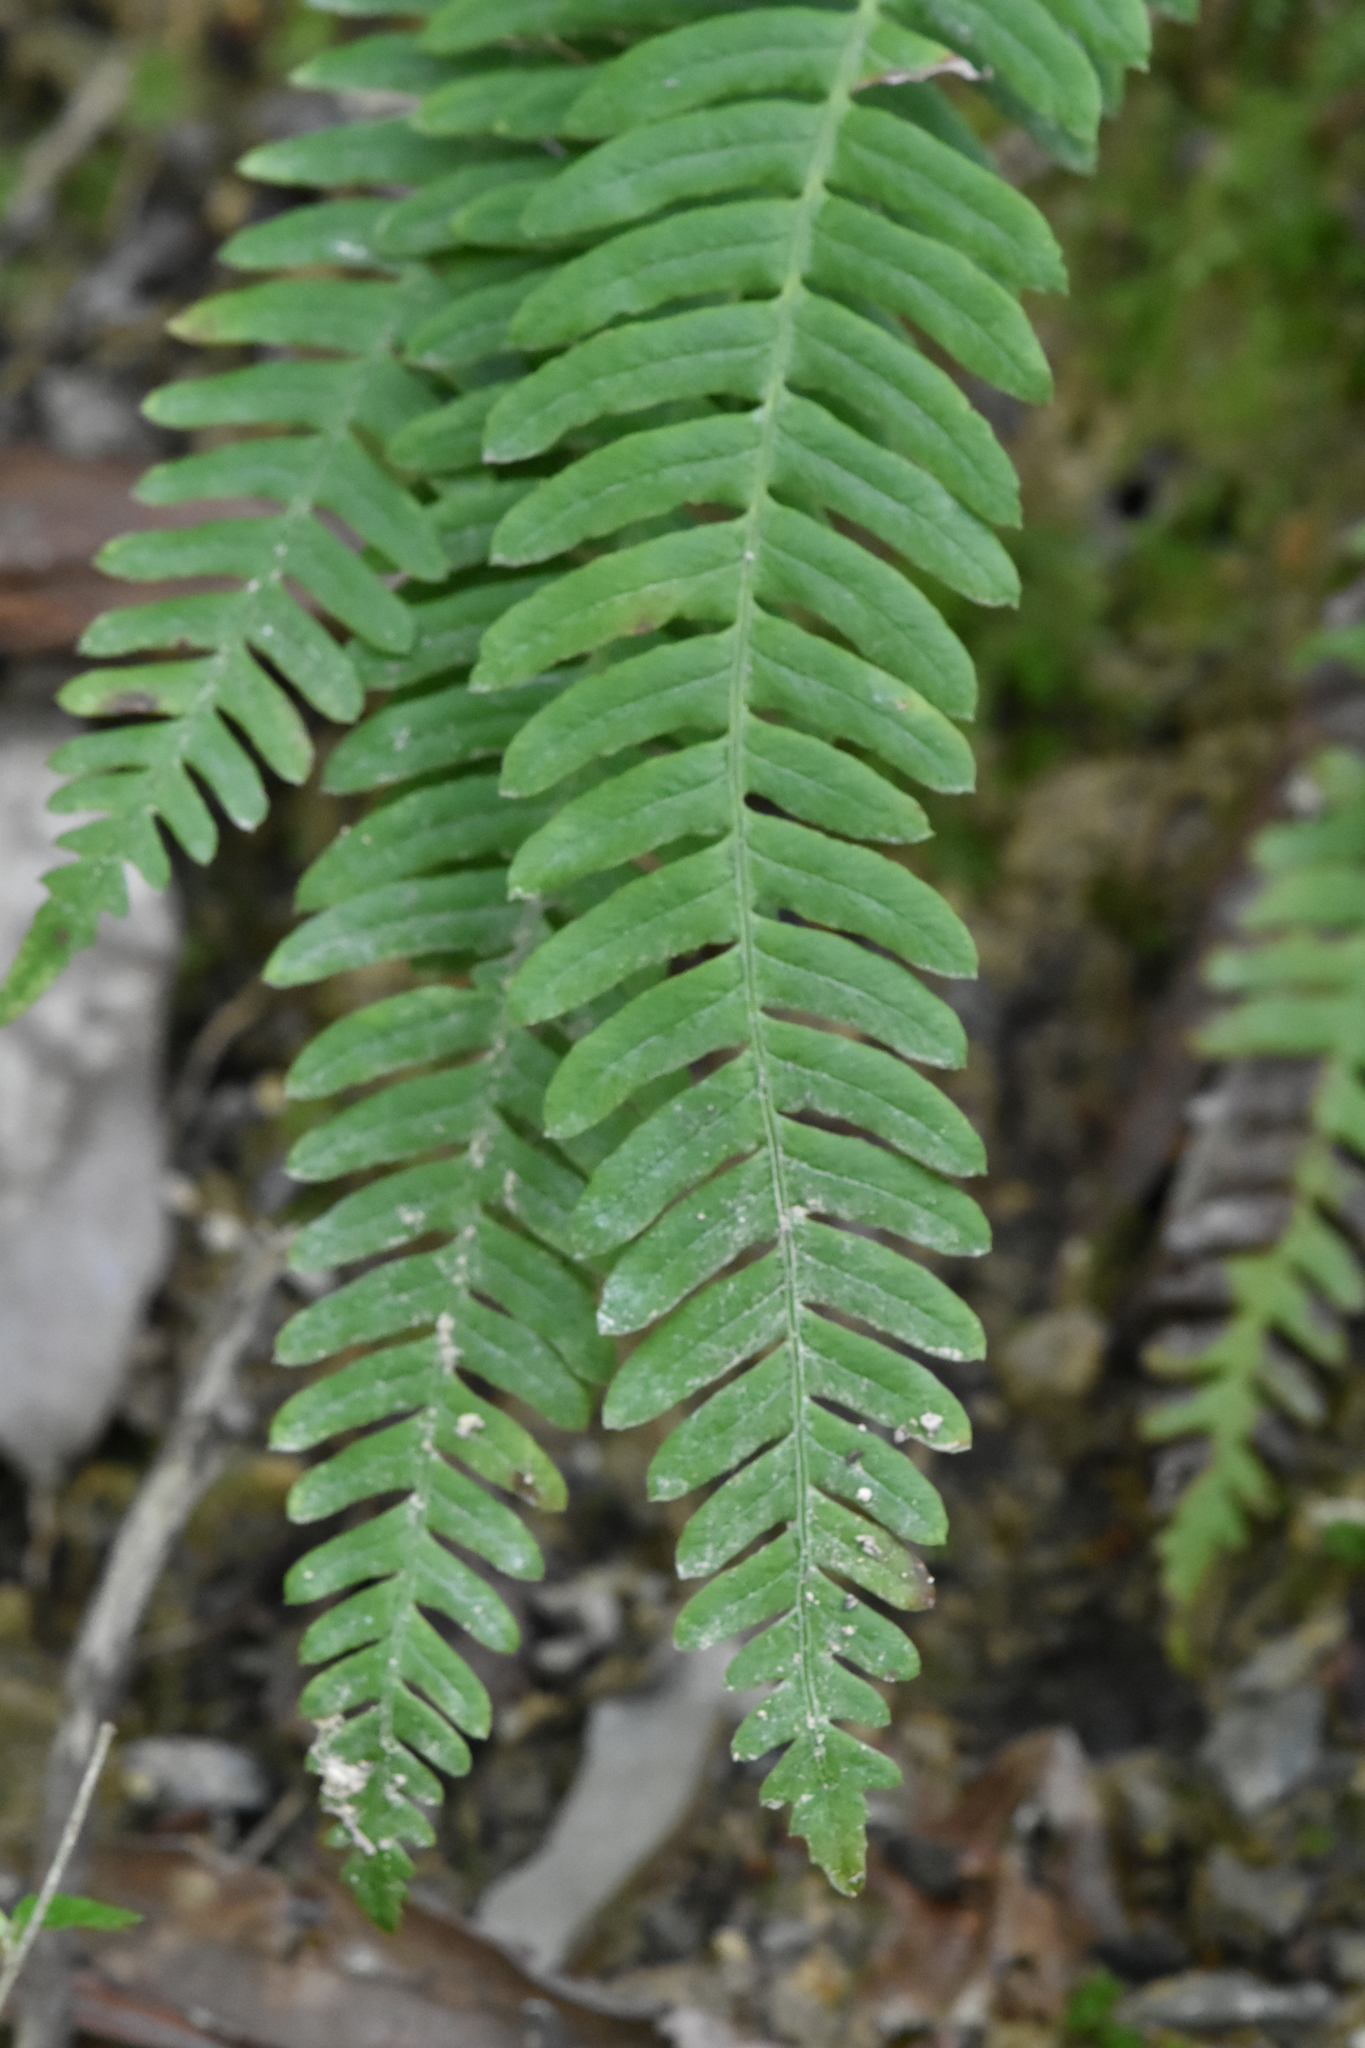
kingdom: Plantae
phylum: Tracheophyta
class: Polypodiopsida
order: Polypodiales
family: Blechnaceae
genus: Struthiopteris
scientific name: Struthiopteris spicant
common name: Deer fern
